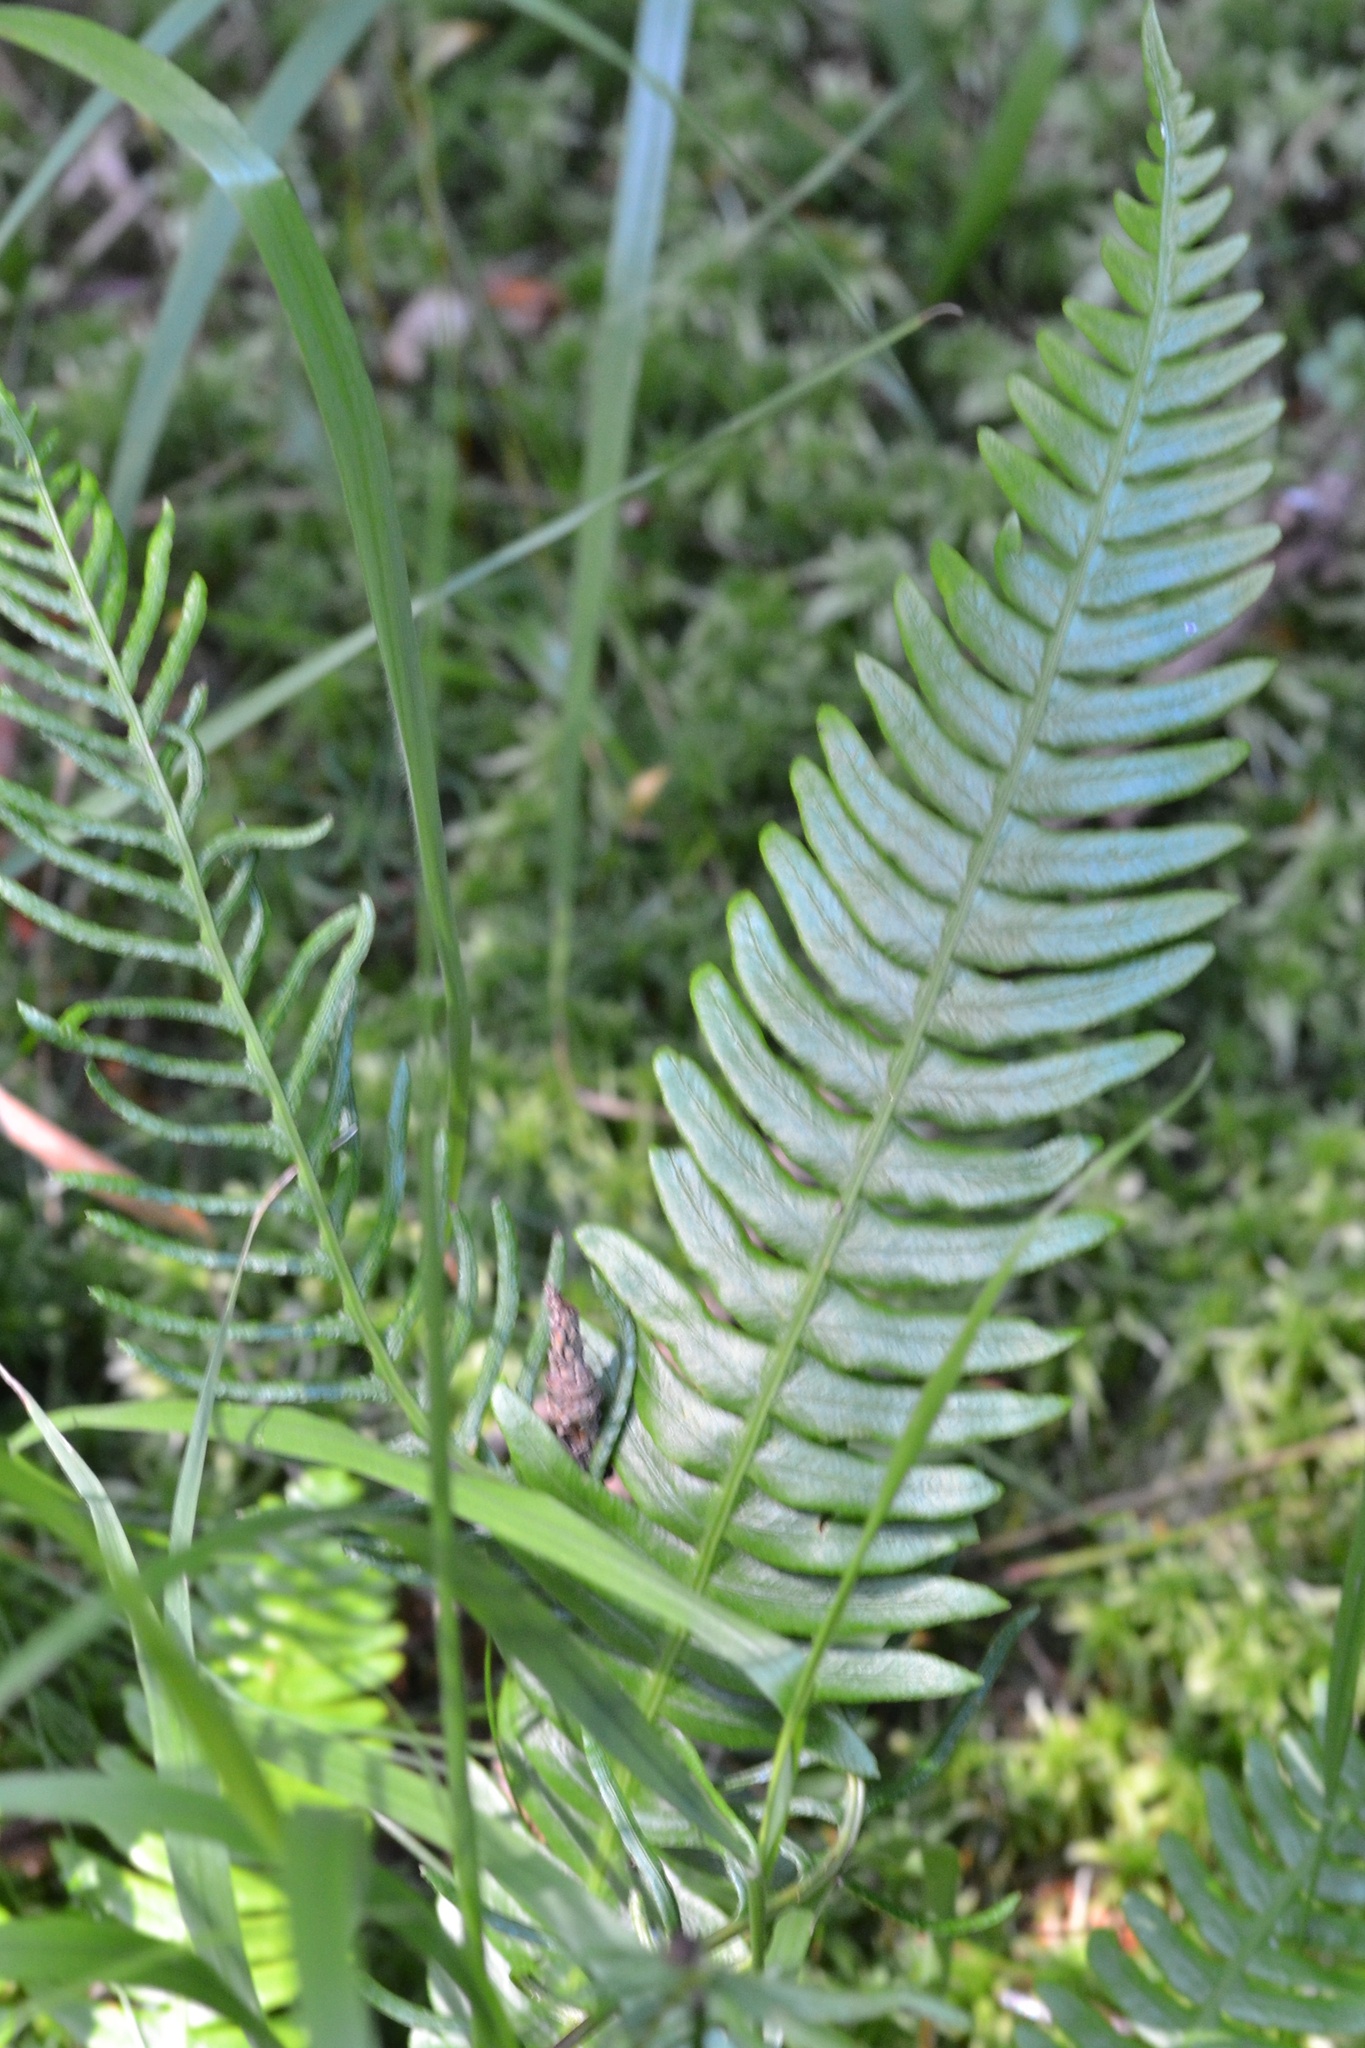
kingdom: Plantae
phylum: Tracheophyta
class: Polypodiopsida
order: Polypodiales
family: Blechnaceae
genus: Struthiopteris
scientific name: Struthiopteris spicant
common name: Deer fern
